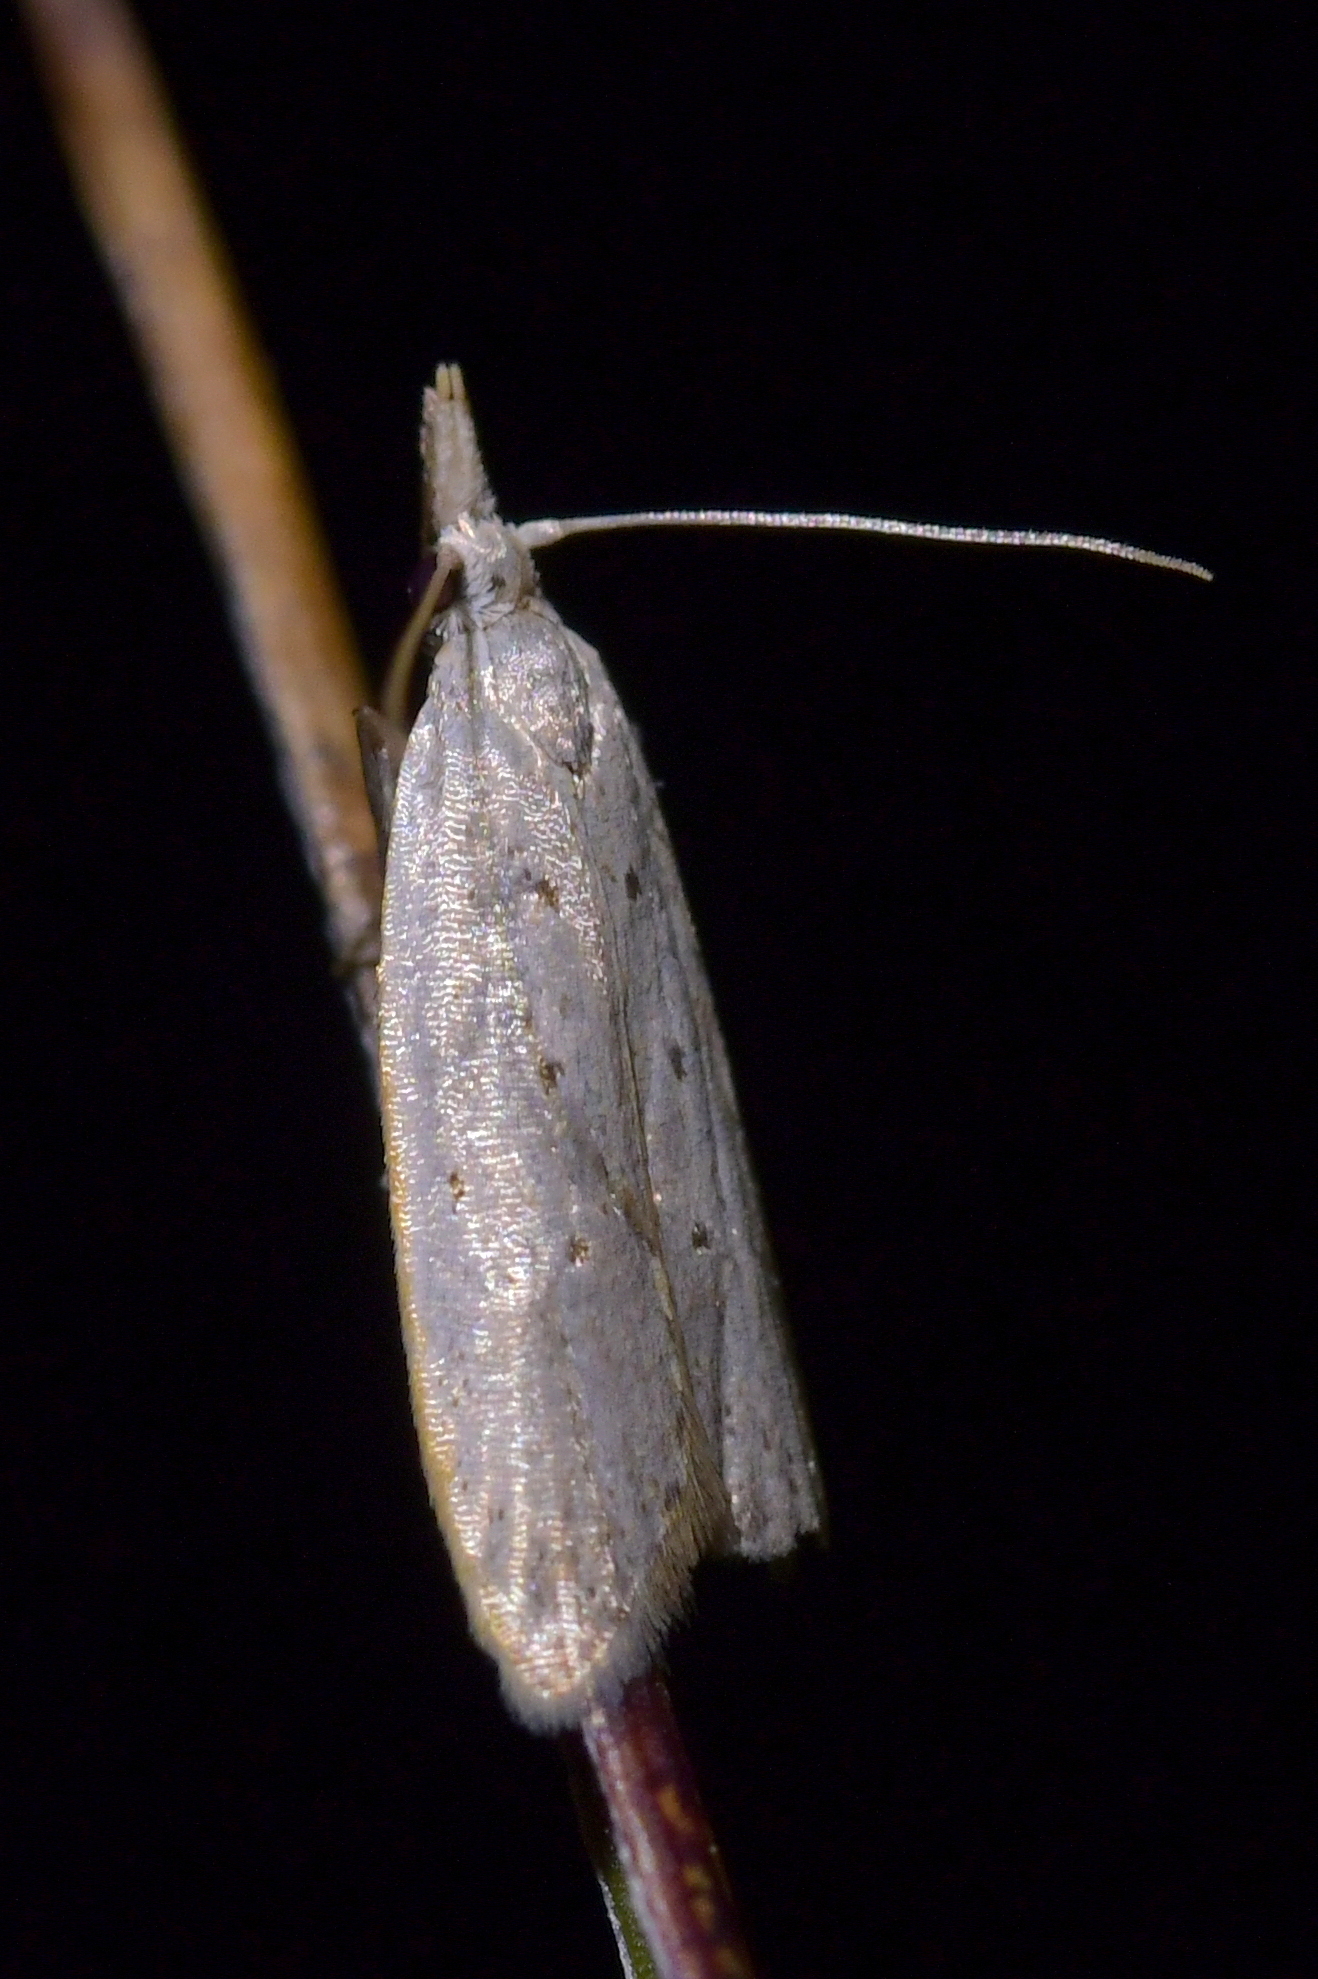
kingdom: Animalia
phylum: Arthropoda
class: Insecta
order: Lepidoptera
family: Carposinidae
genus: Paramorpha
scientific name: Paramorpha
